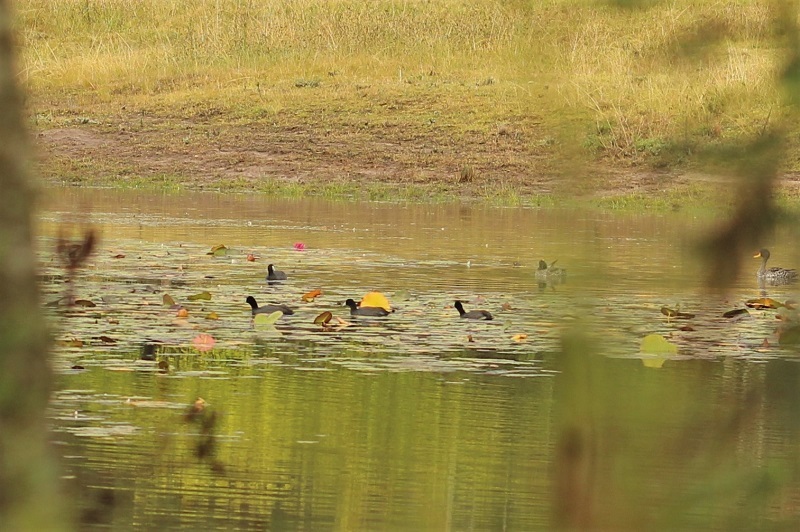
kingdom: Animalia
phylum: Chordata
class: Aves
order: Gruiformes
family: Rallidae
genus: Fulica
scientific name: Fulica cristata
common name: Red-knobbed coot
